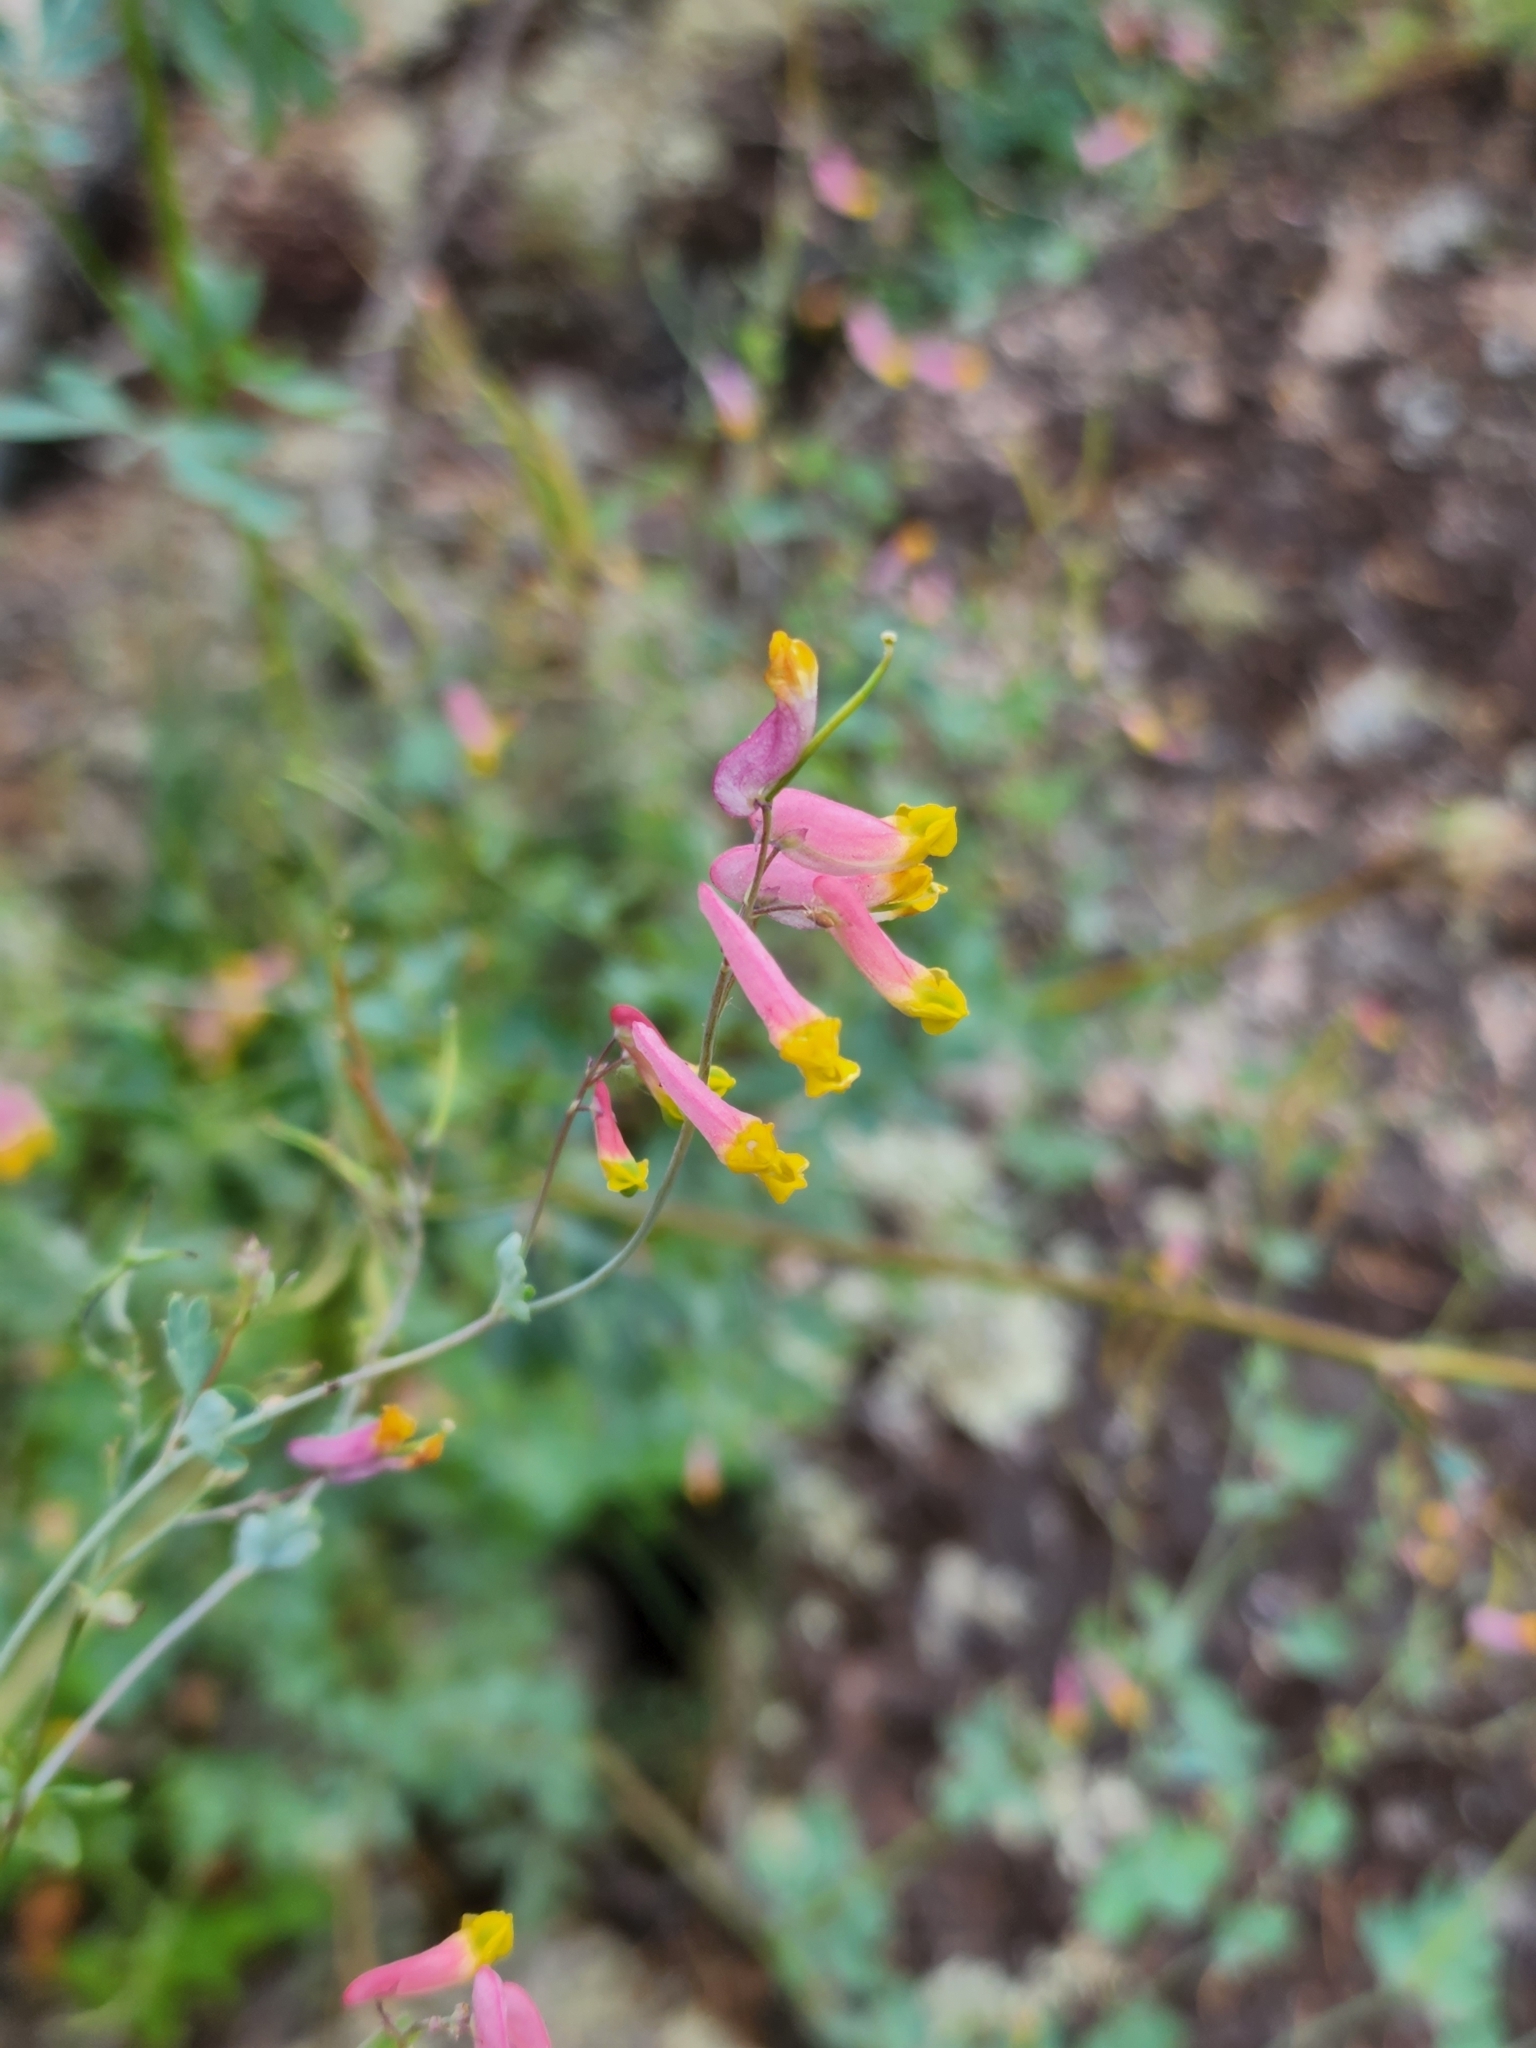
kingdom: Plantae
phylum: Tracheophyta
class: Magnoliopsida
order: Ranunculales
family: Papaveraceae
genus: Capnoides
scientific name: Capnoides sempervirens
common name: Rock harlequin
